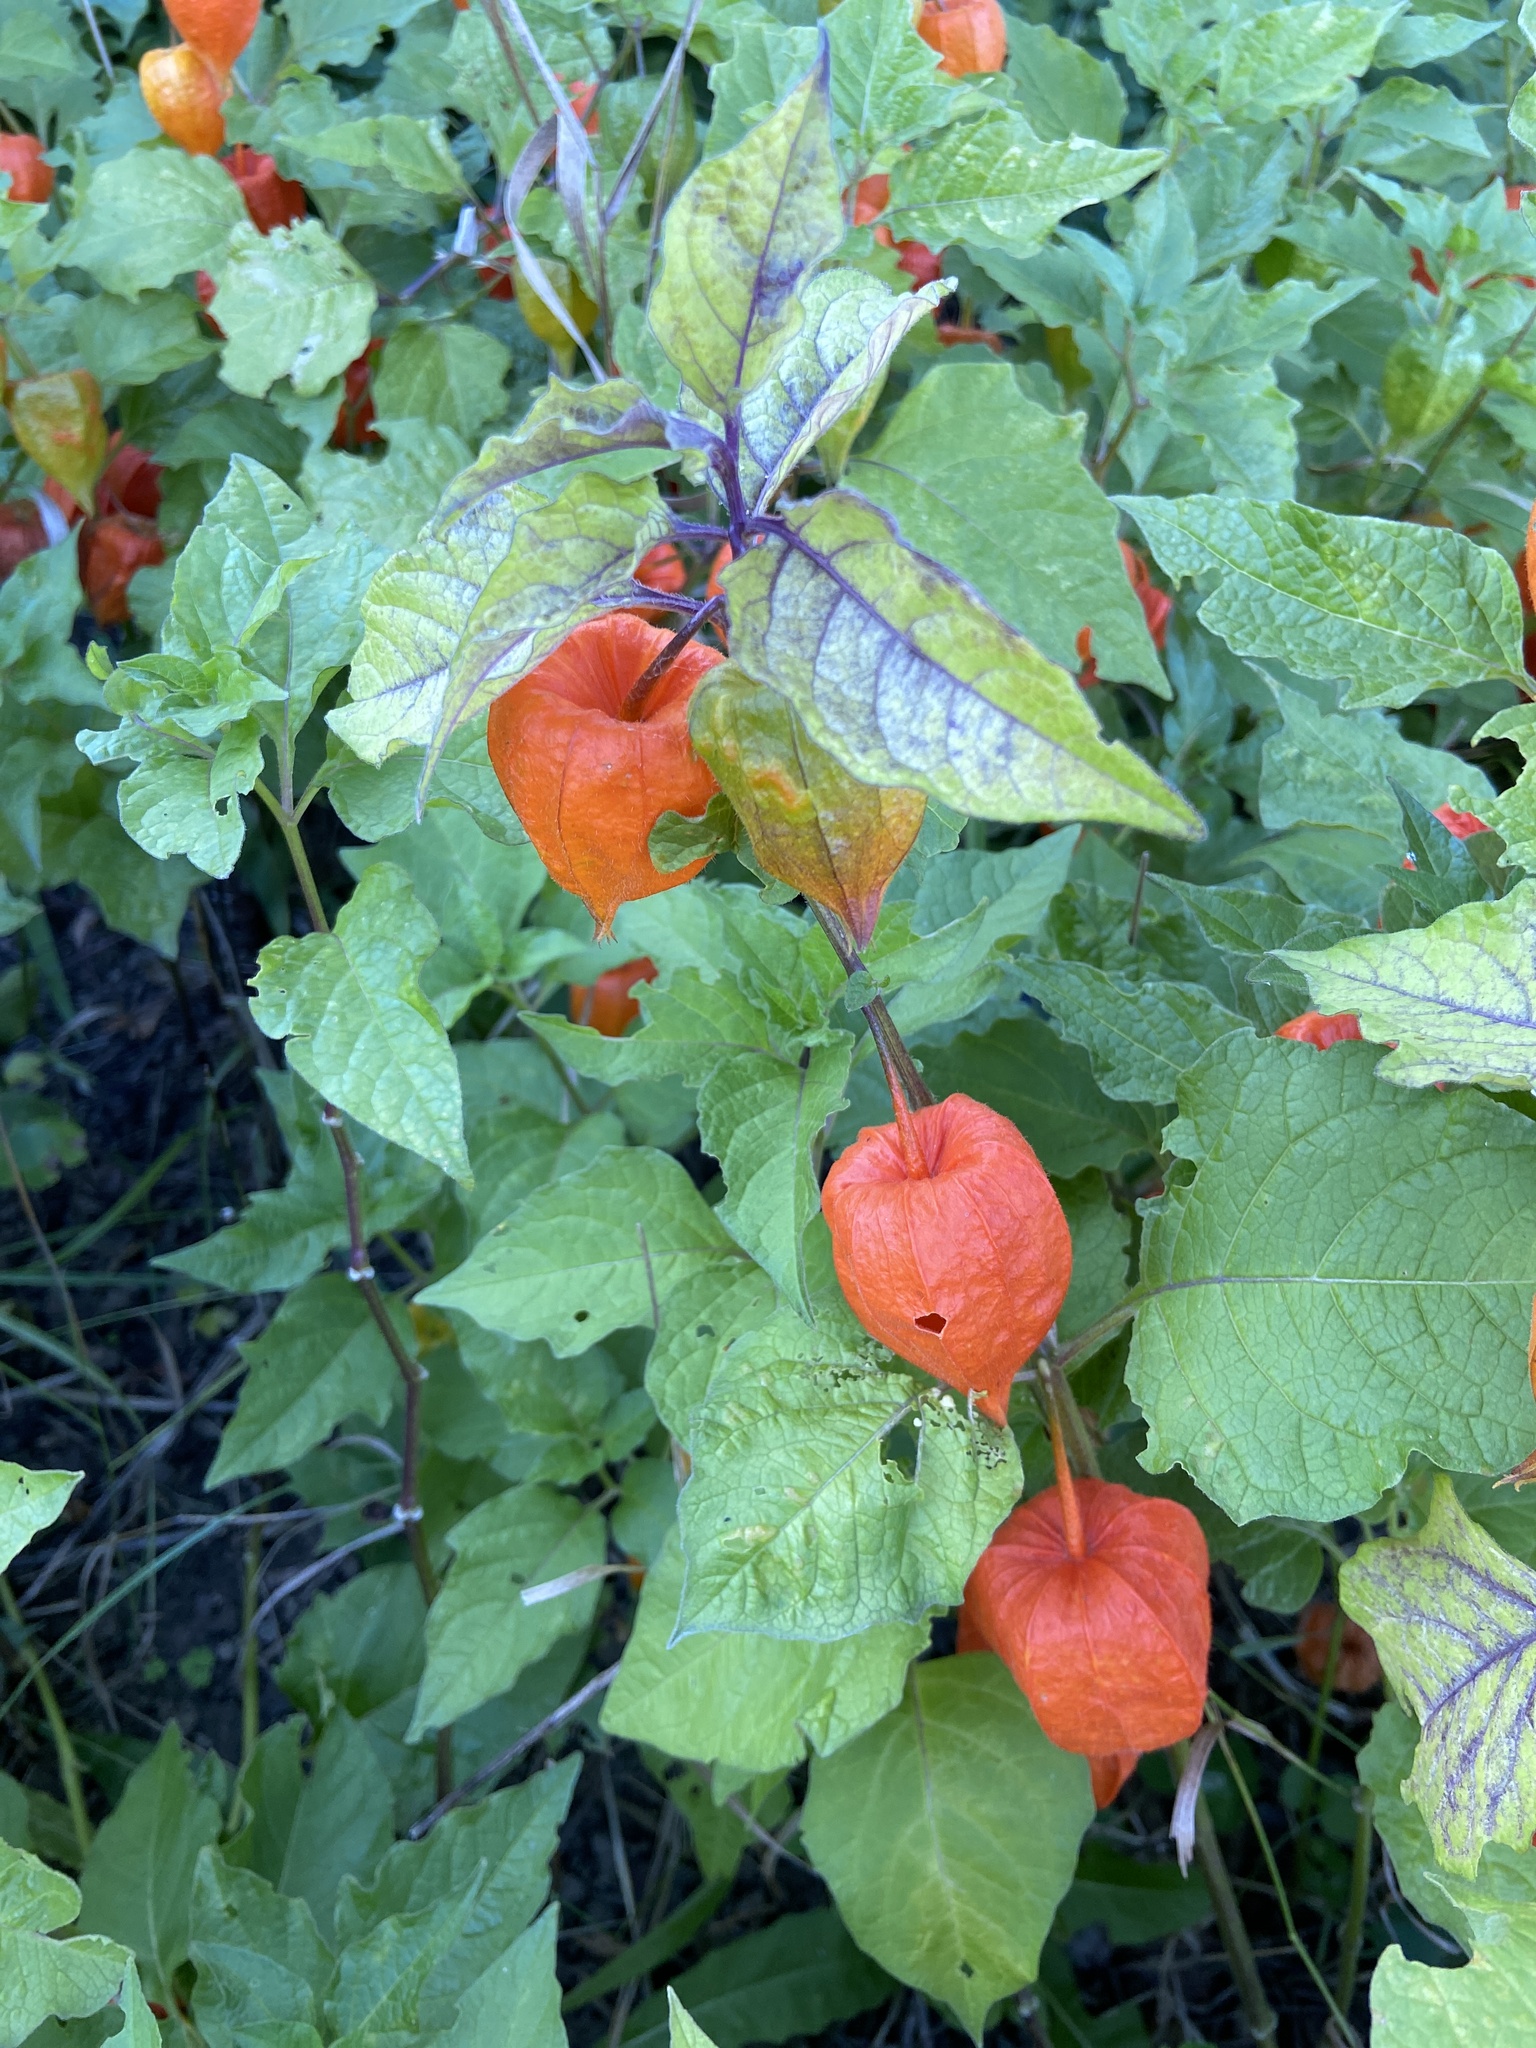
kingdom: Plantae
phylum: Tracheophyta
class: Magnoliopsida
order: Solanales
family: Solanaceae
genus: Alkekengi
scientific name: Alkekengi officinarum
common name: Japanese-lantern
